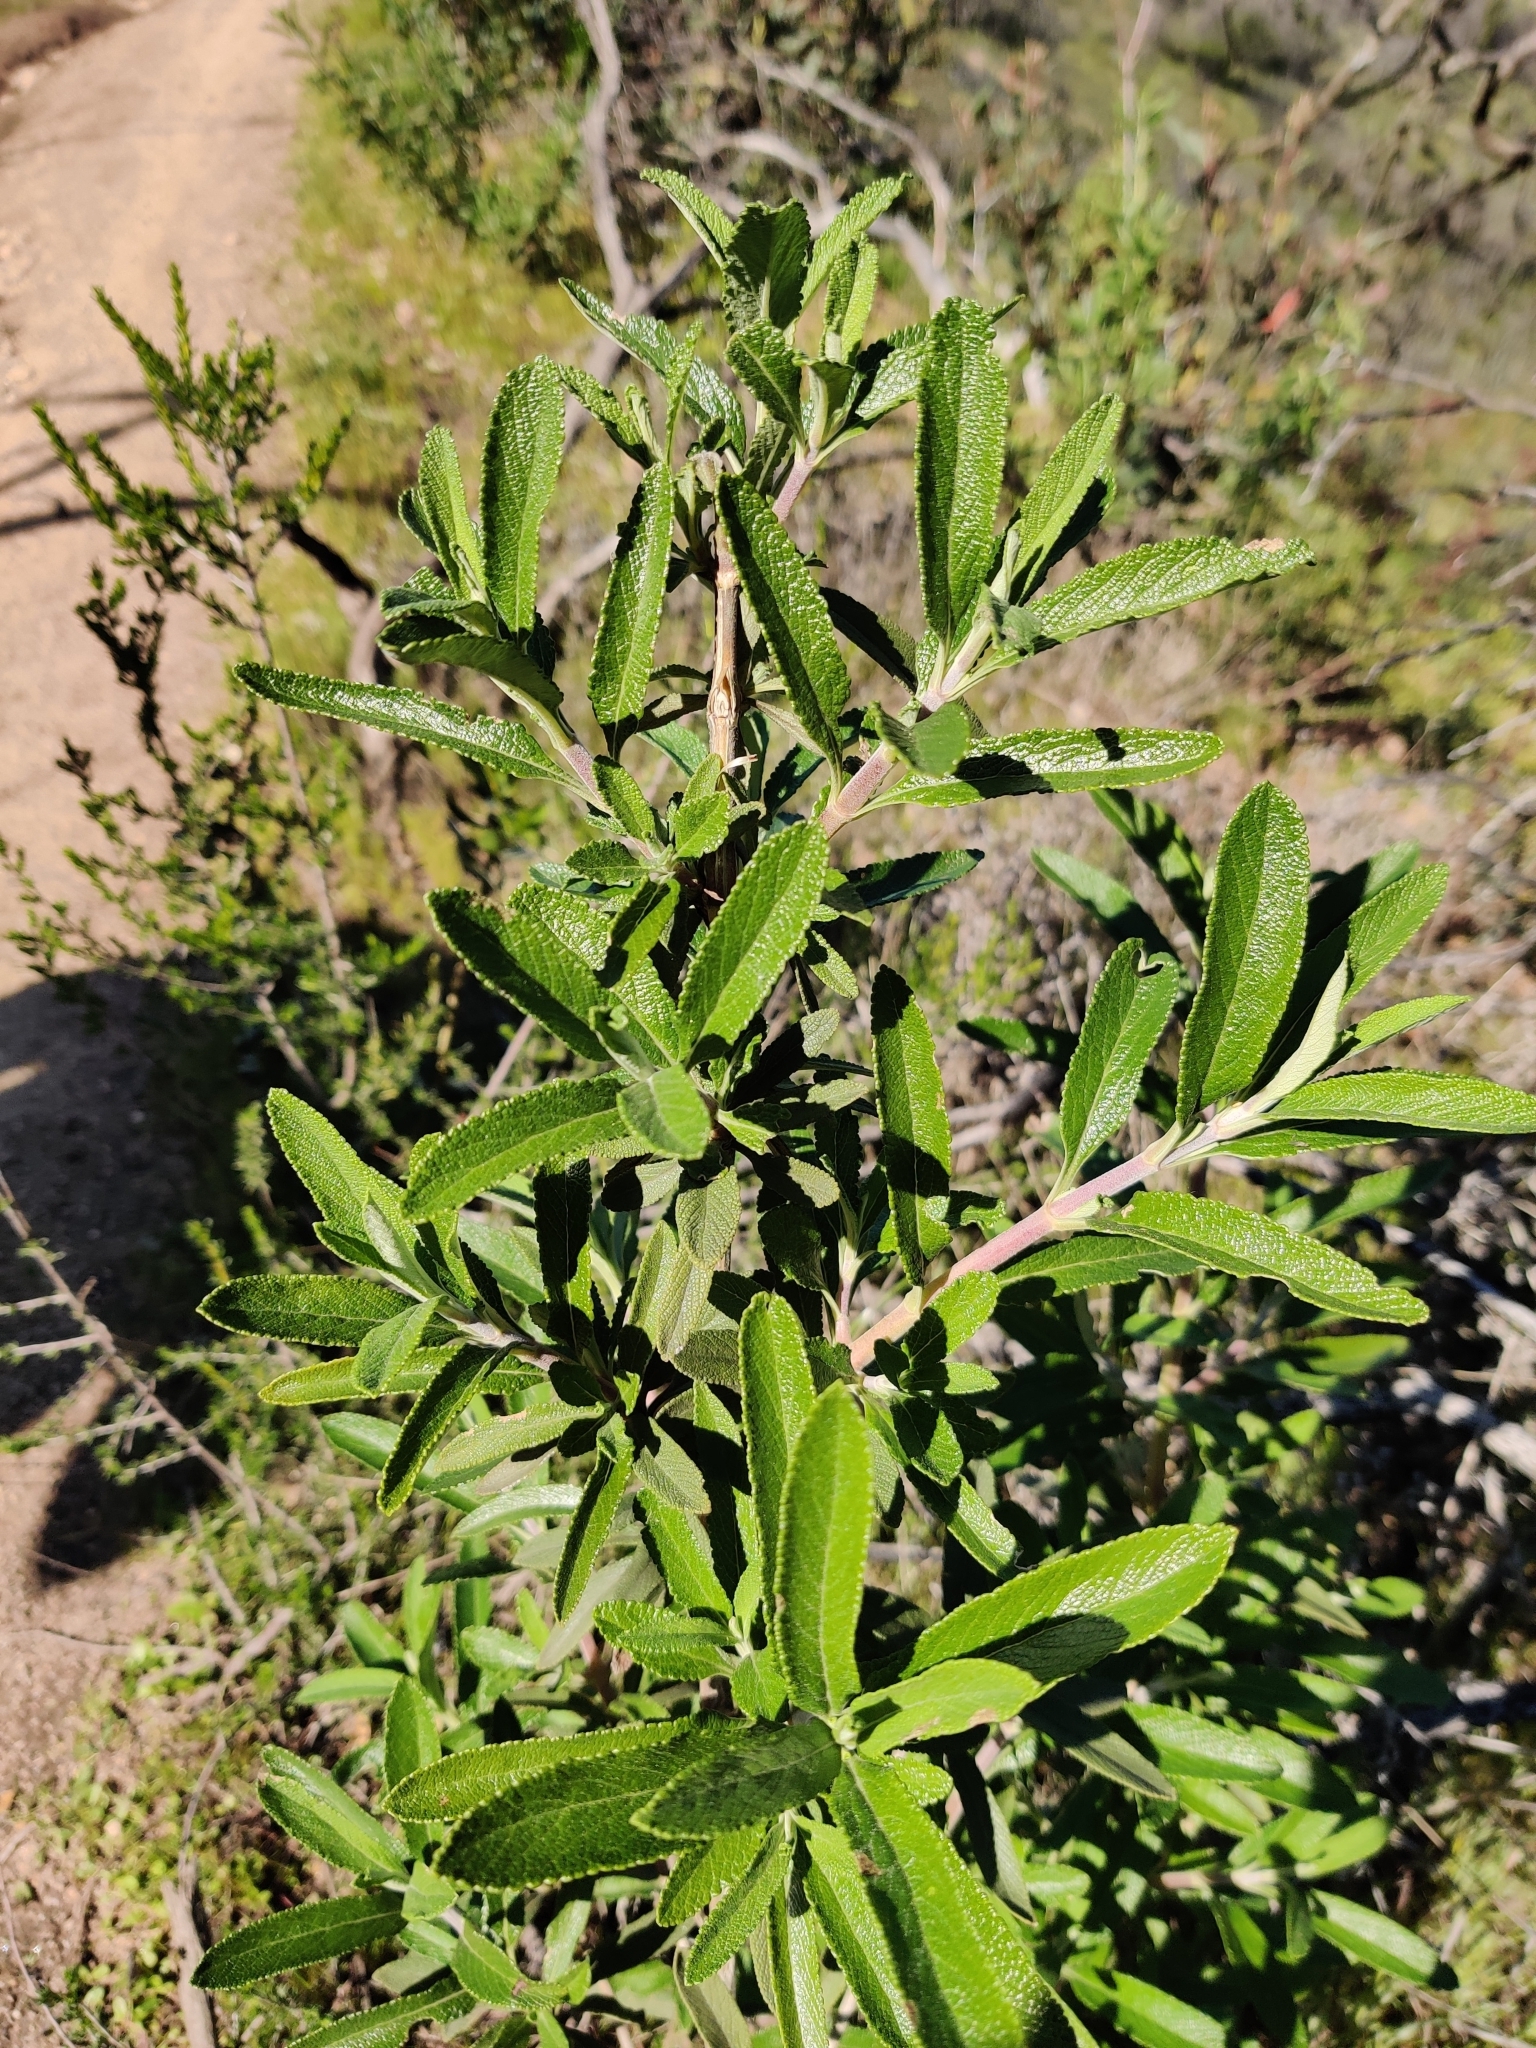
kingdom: Plantae
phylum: Tracheophyta
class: Magnoliopsida
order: Lamiales
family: Lamiaceae
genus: Salvia
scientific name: Salvia mellifera
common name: Black sage
